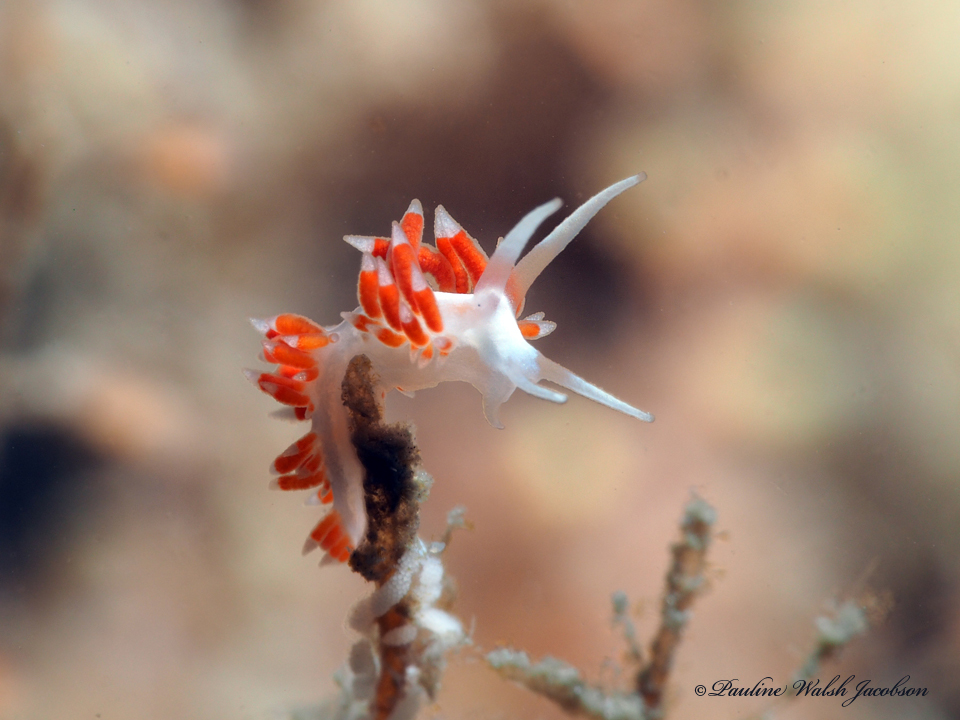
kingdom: Animalia
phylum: Mollusca
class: Gastropoda
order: Nudibranchia
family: Flabellinidae
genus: Flabellina
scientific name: Flabellina dushia
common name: Dushia flabellina
